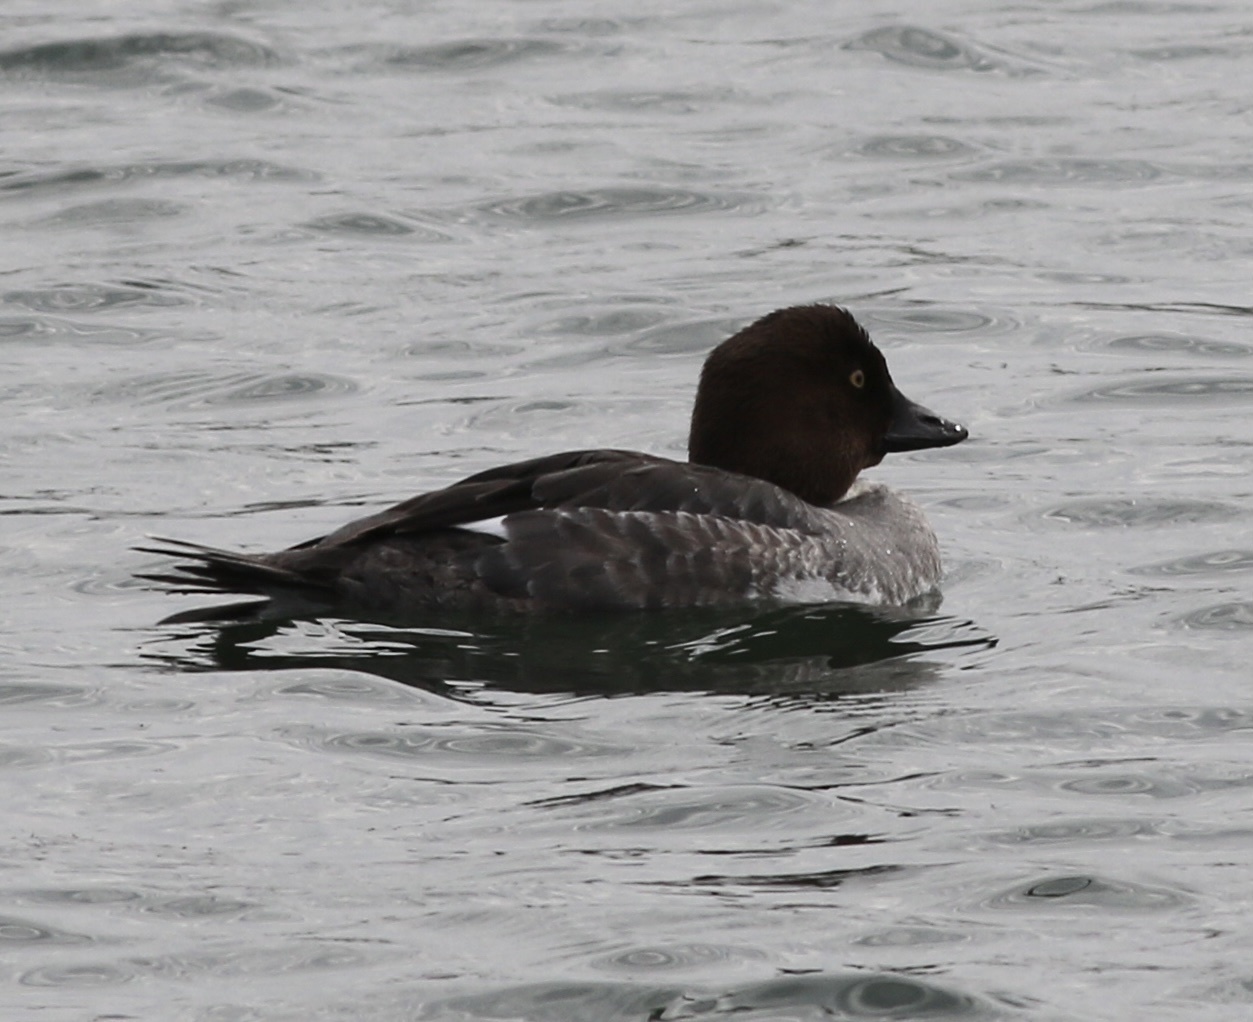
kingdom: Animalia
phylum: Chordata
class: Aves
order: Anseriformes
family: Anatidae
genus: Bucephala
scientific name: Bucephala clangula
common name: Common goldeneye
